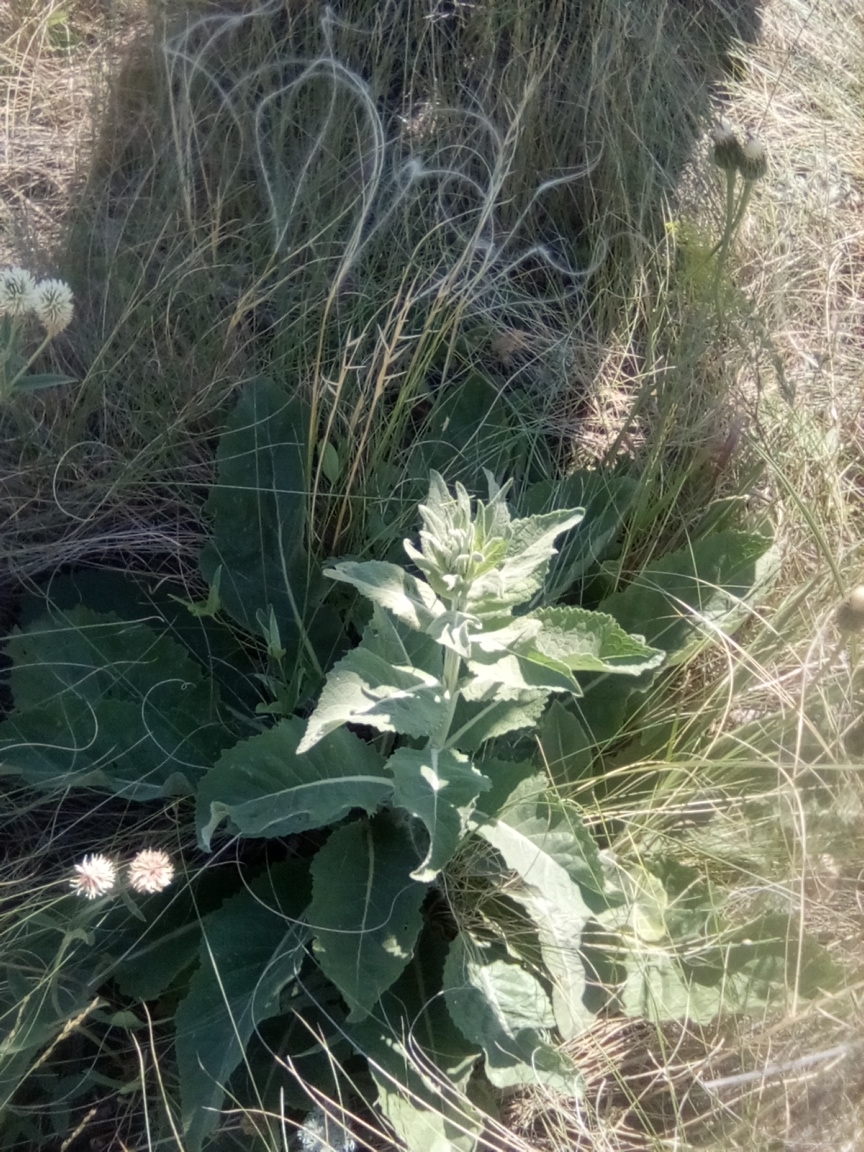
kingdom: Plantae
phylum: Tracheophyta
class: Magnoliopsida
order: Lamiales
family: Scrophulariaceae
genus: Verbascum
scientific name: Verbascum lychnitis
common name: White mullein
